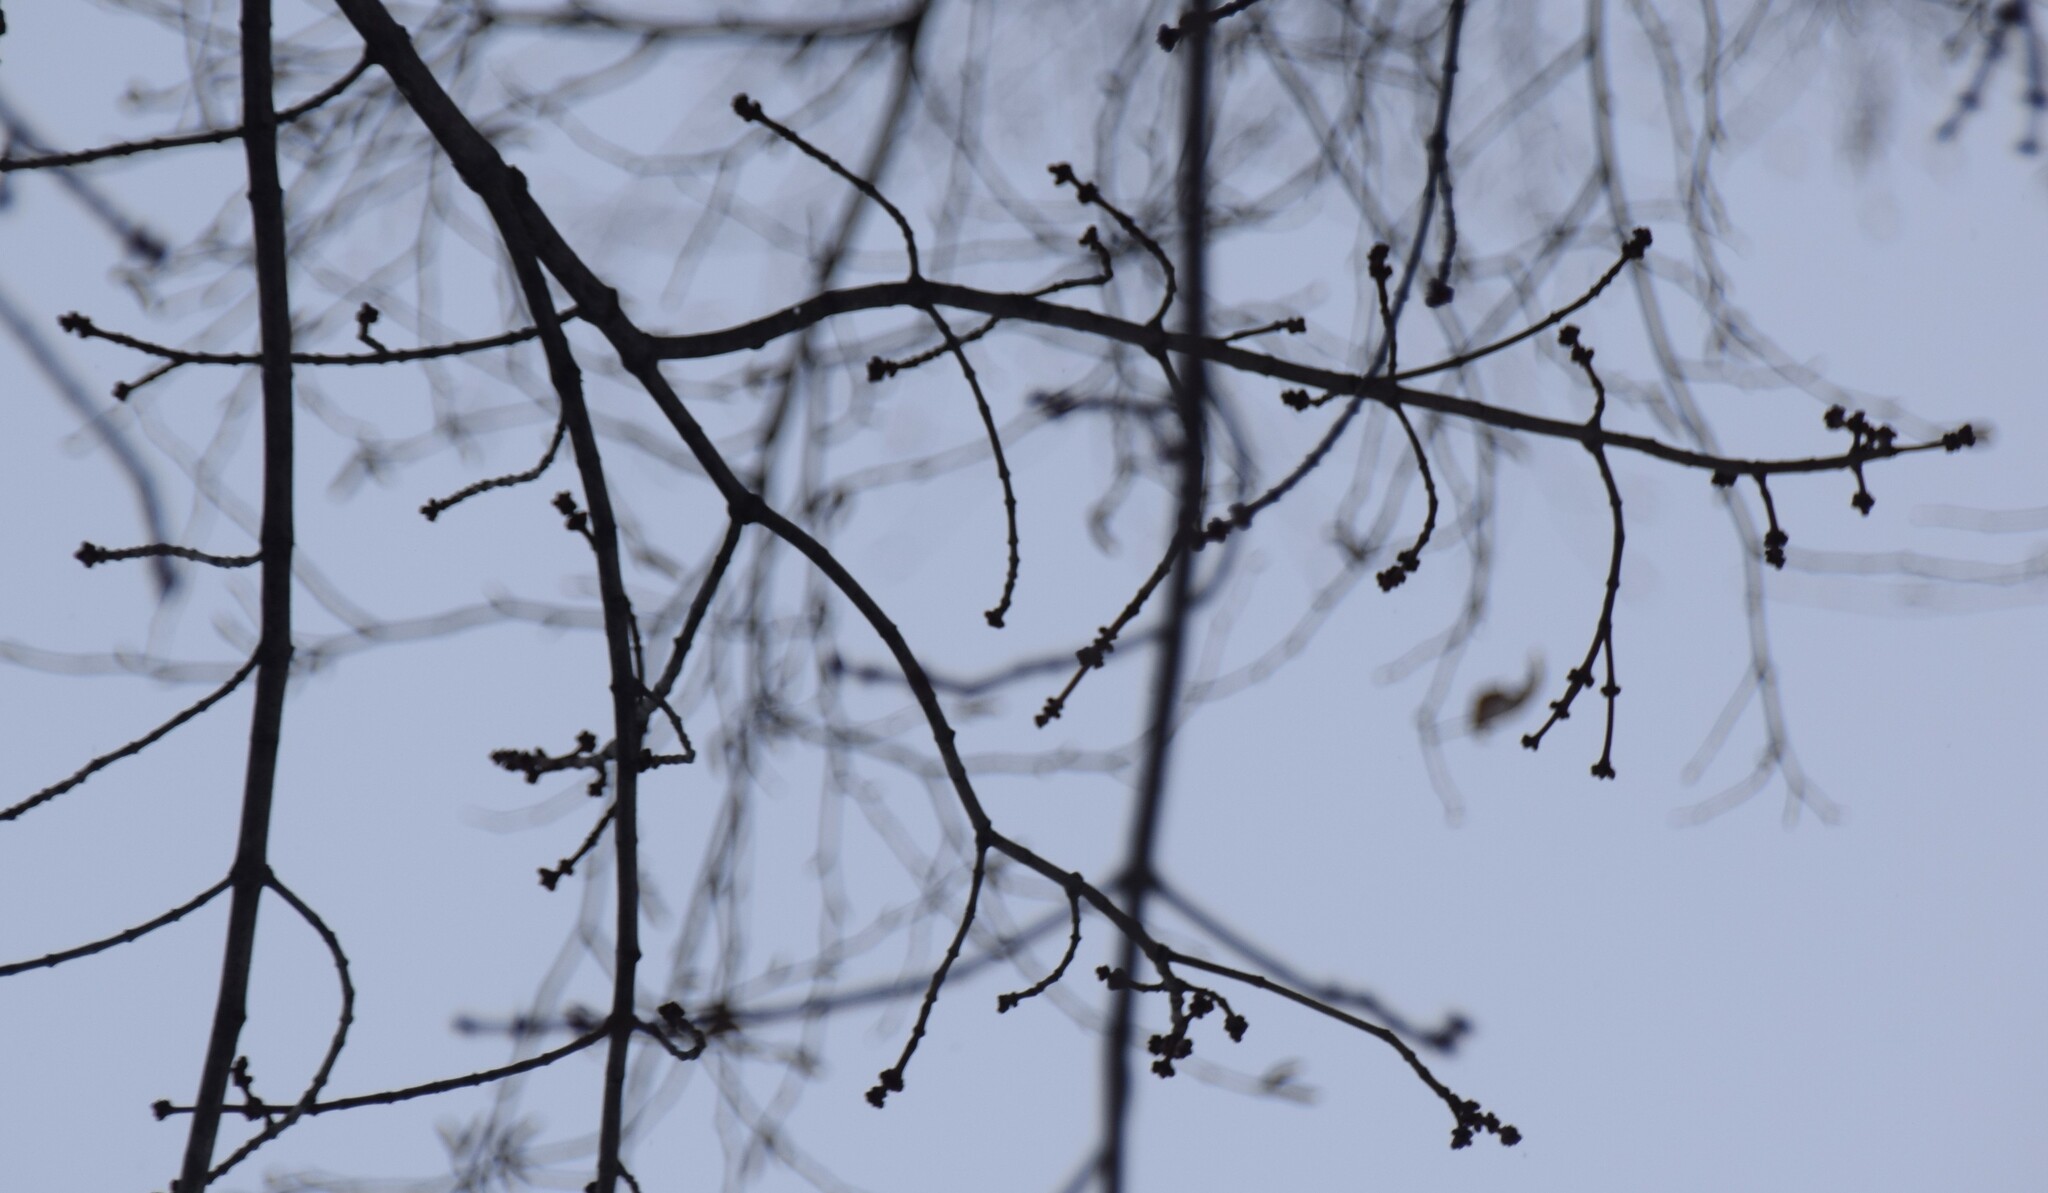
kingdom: Plantae
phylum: Tracheophyta
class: Magnoliopsida
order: Sapindales
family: Sapindaceae
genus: Acer
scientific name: Acer rubrum
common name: Red maple
